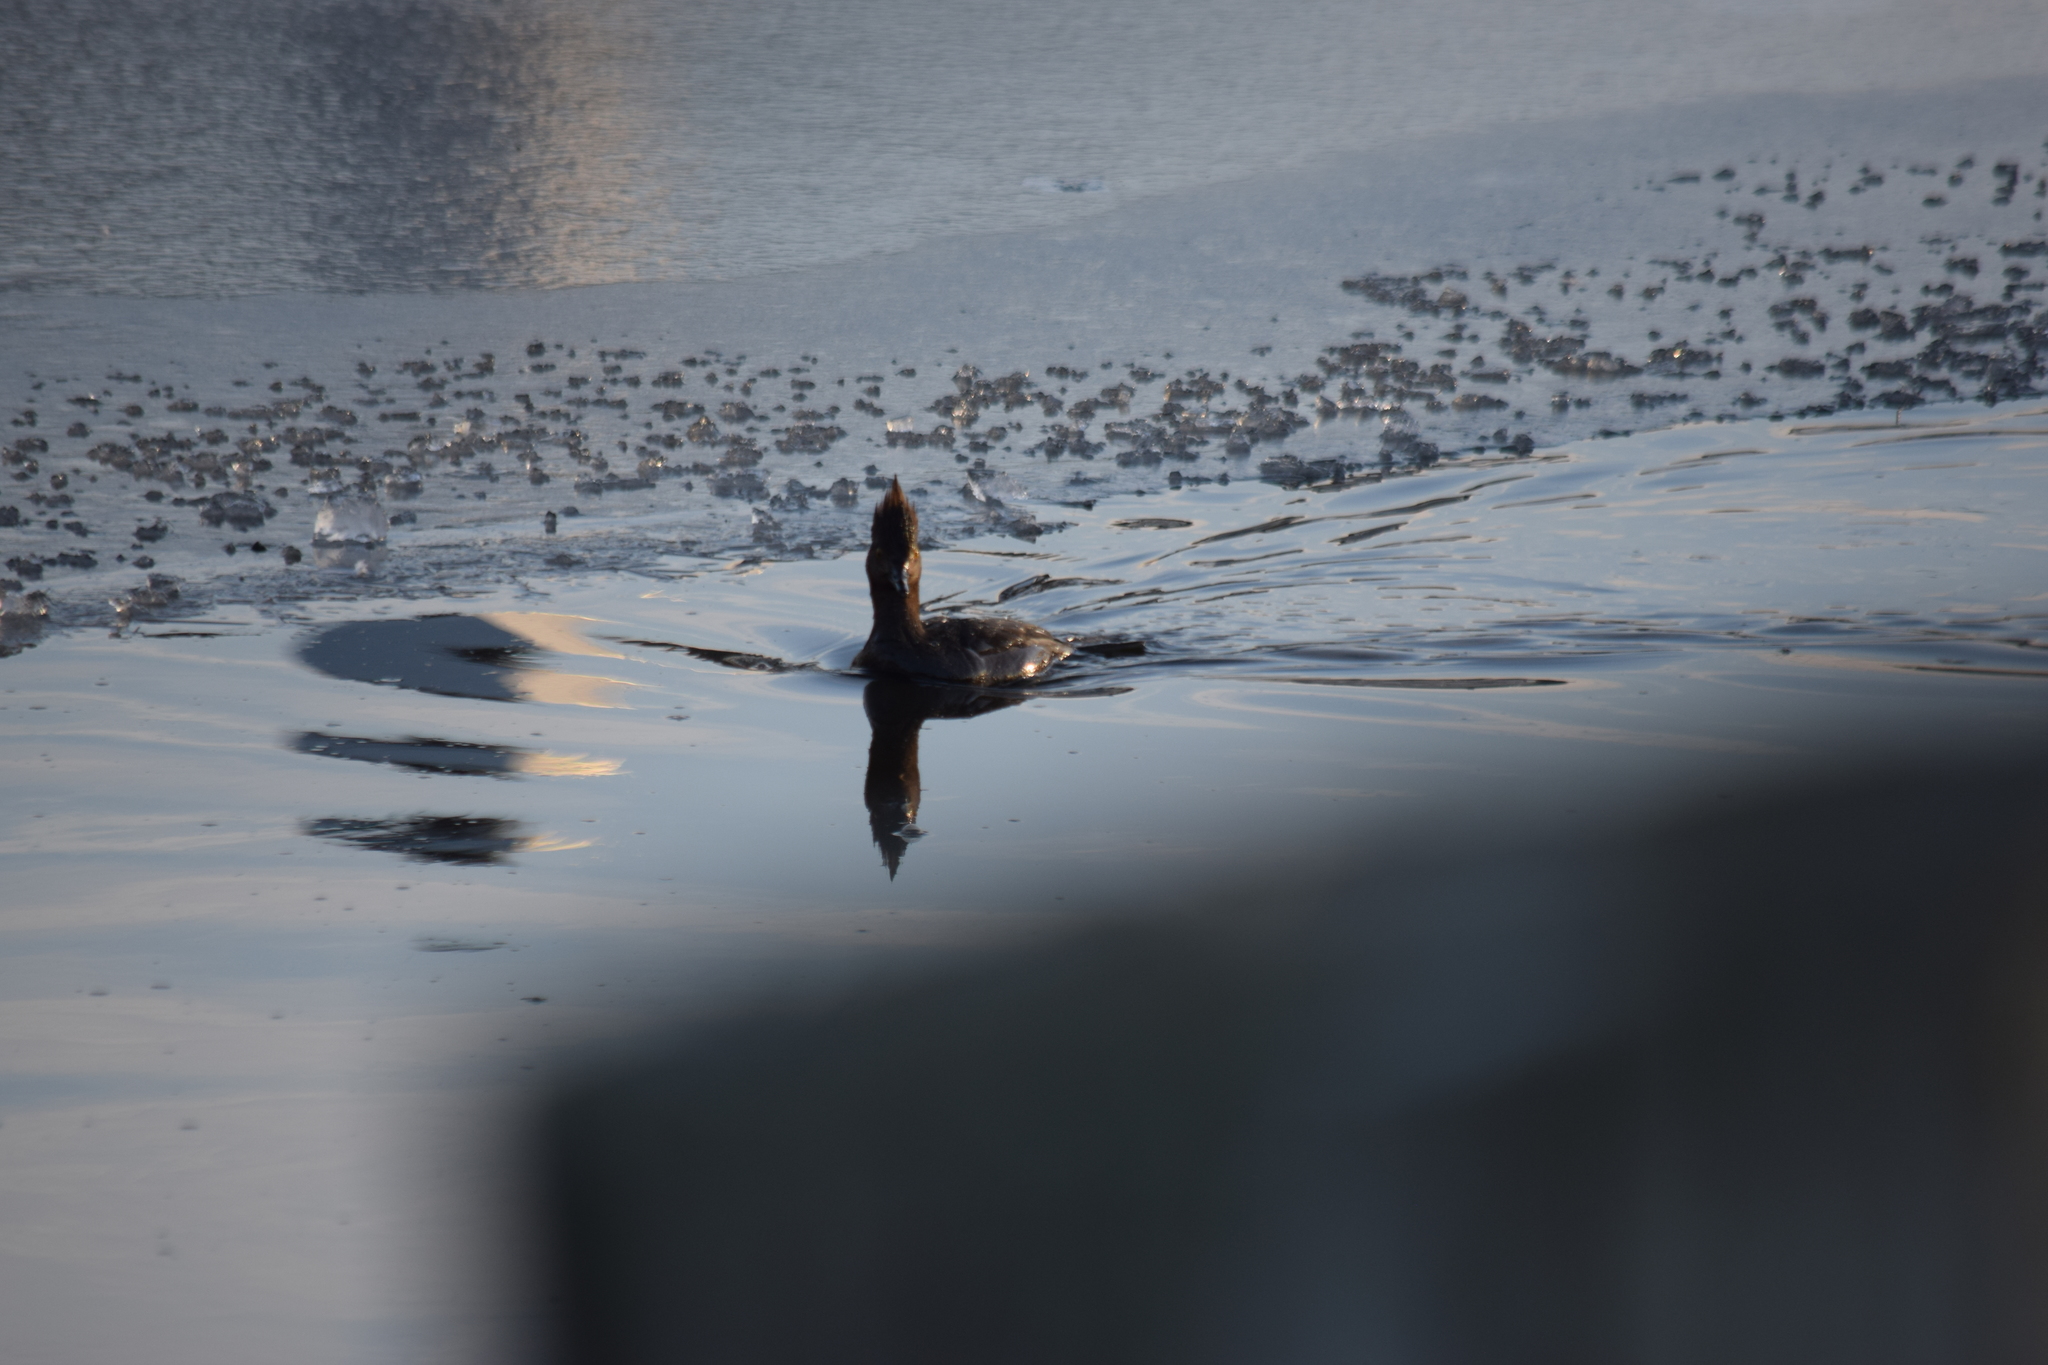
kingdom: Animalia
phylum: Chordata
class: Aves
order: Anseriformes
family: Anatidae
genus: Lophodytes
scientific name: Lophodytes cucullatus
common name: Hooded merganser
